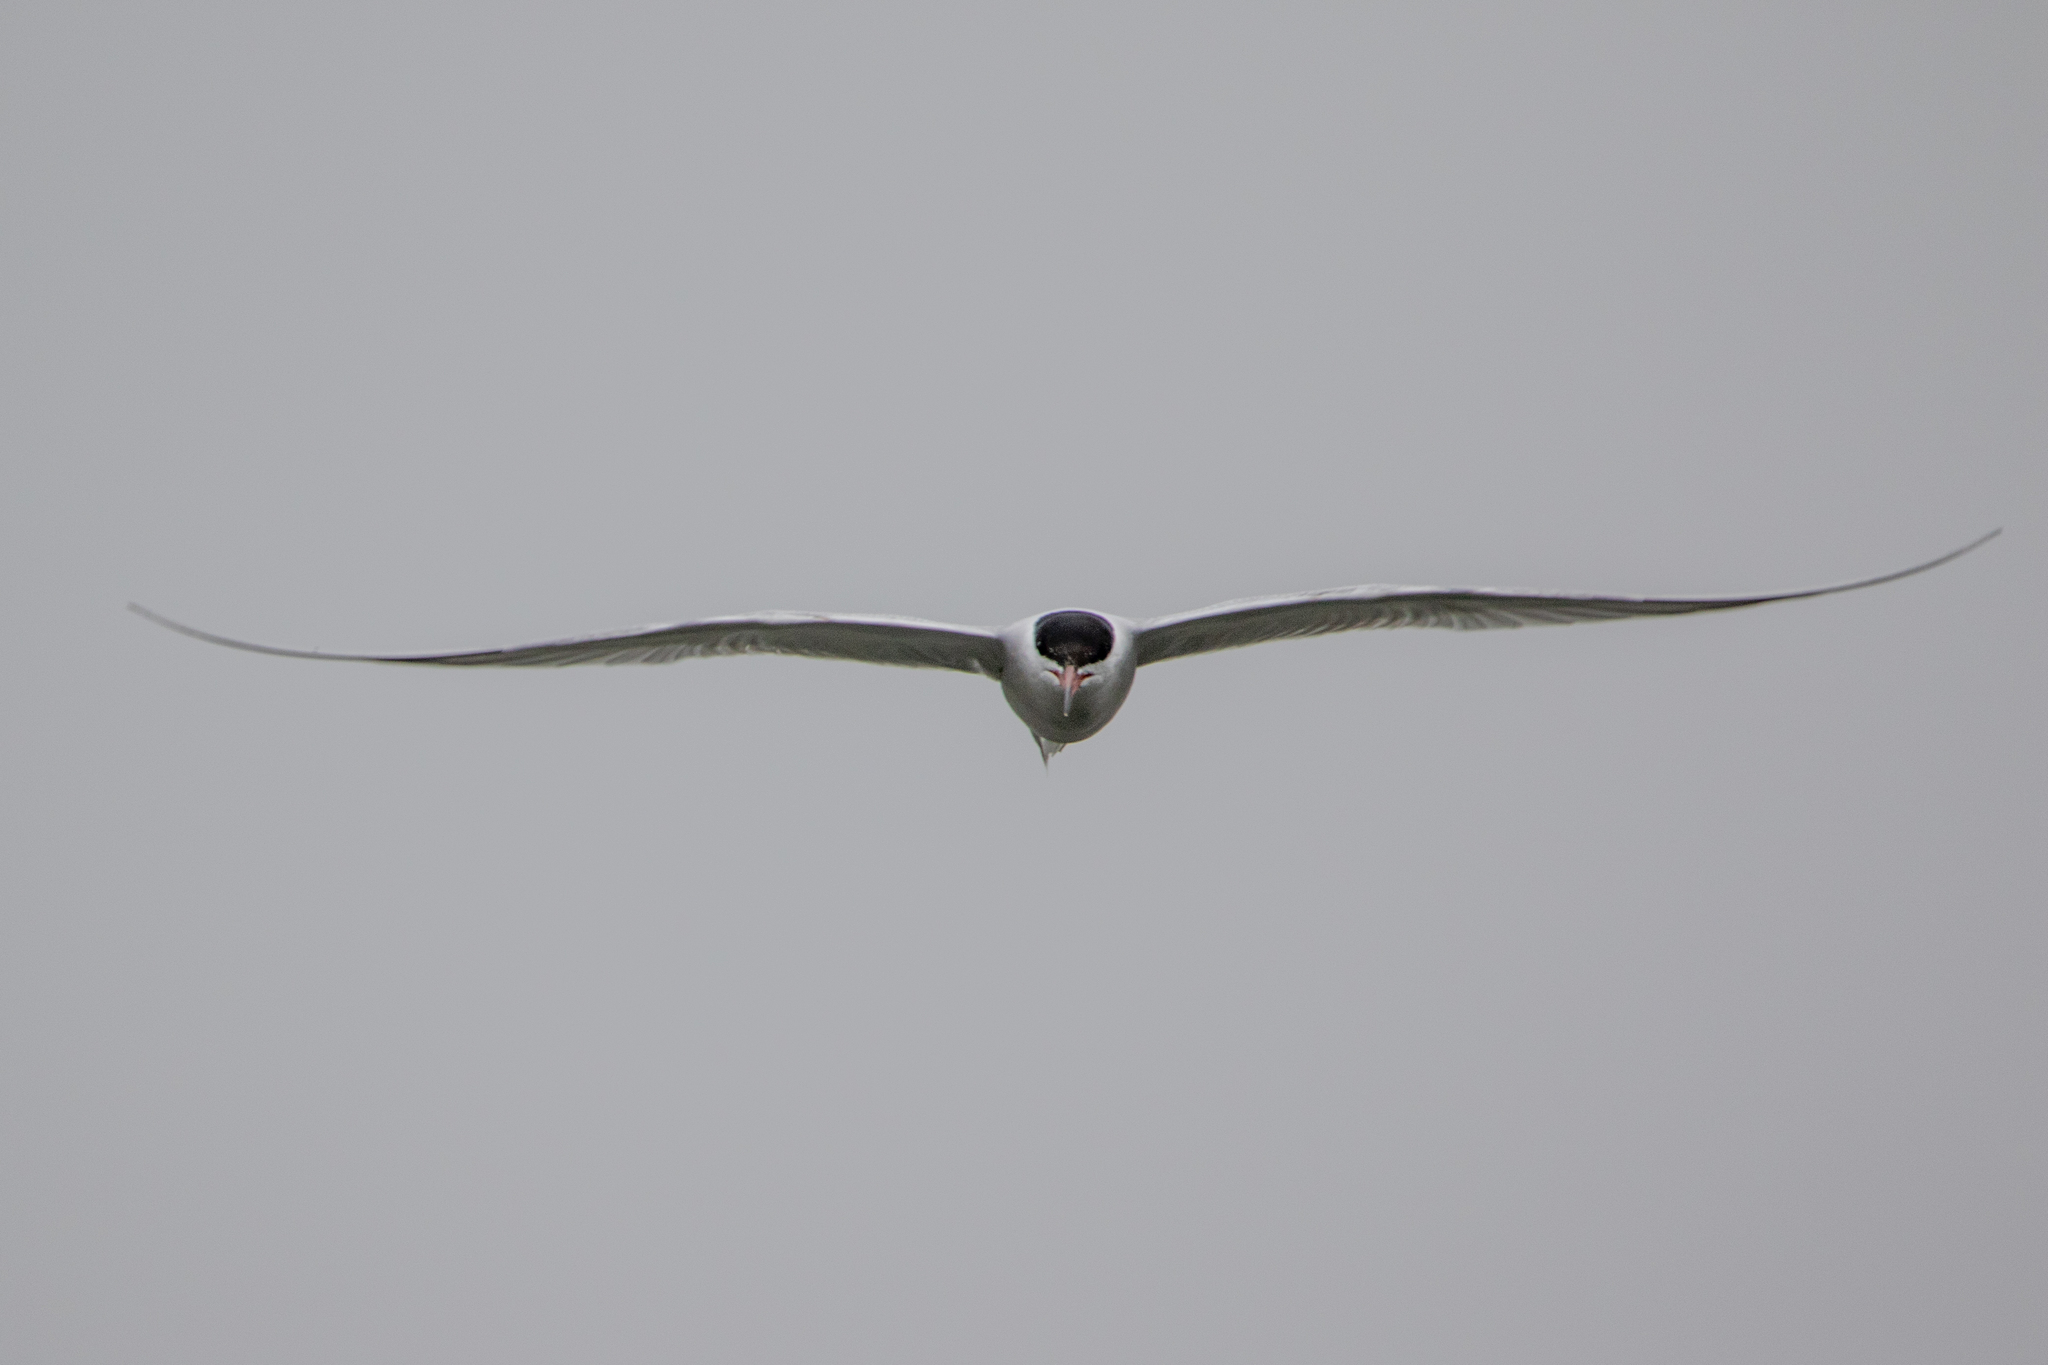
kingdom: Animalia
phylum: Chordata
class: Aves
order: Charadriiformes
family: Laridae
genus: Sterna
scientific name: Sterna hirundo
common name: Common tern
